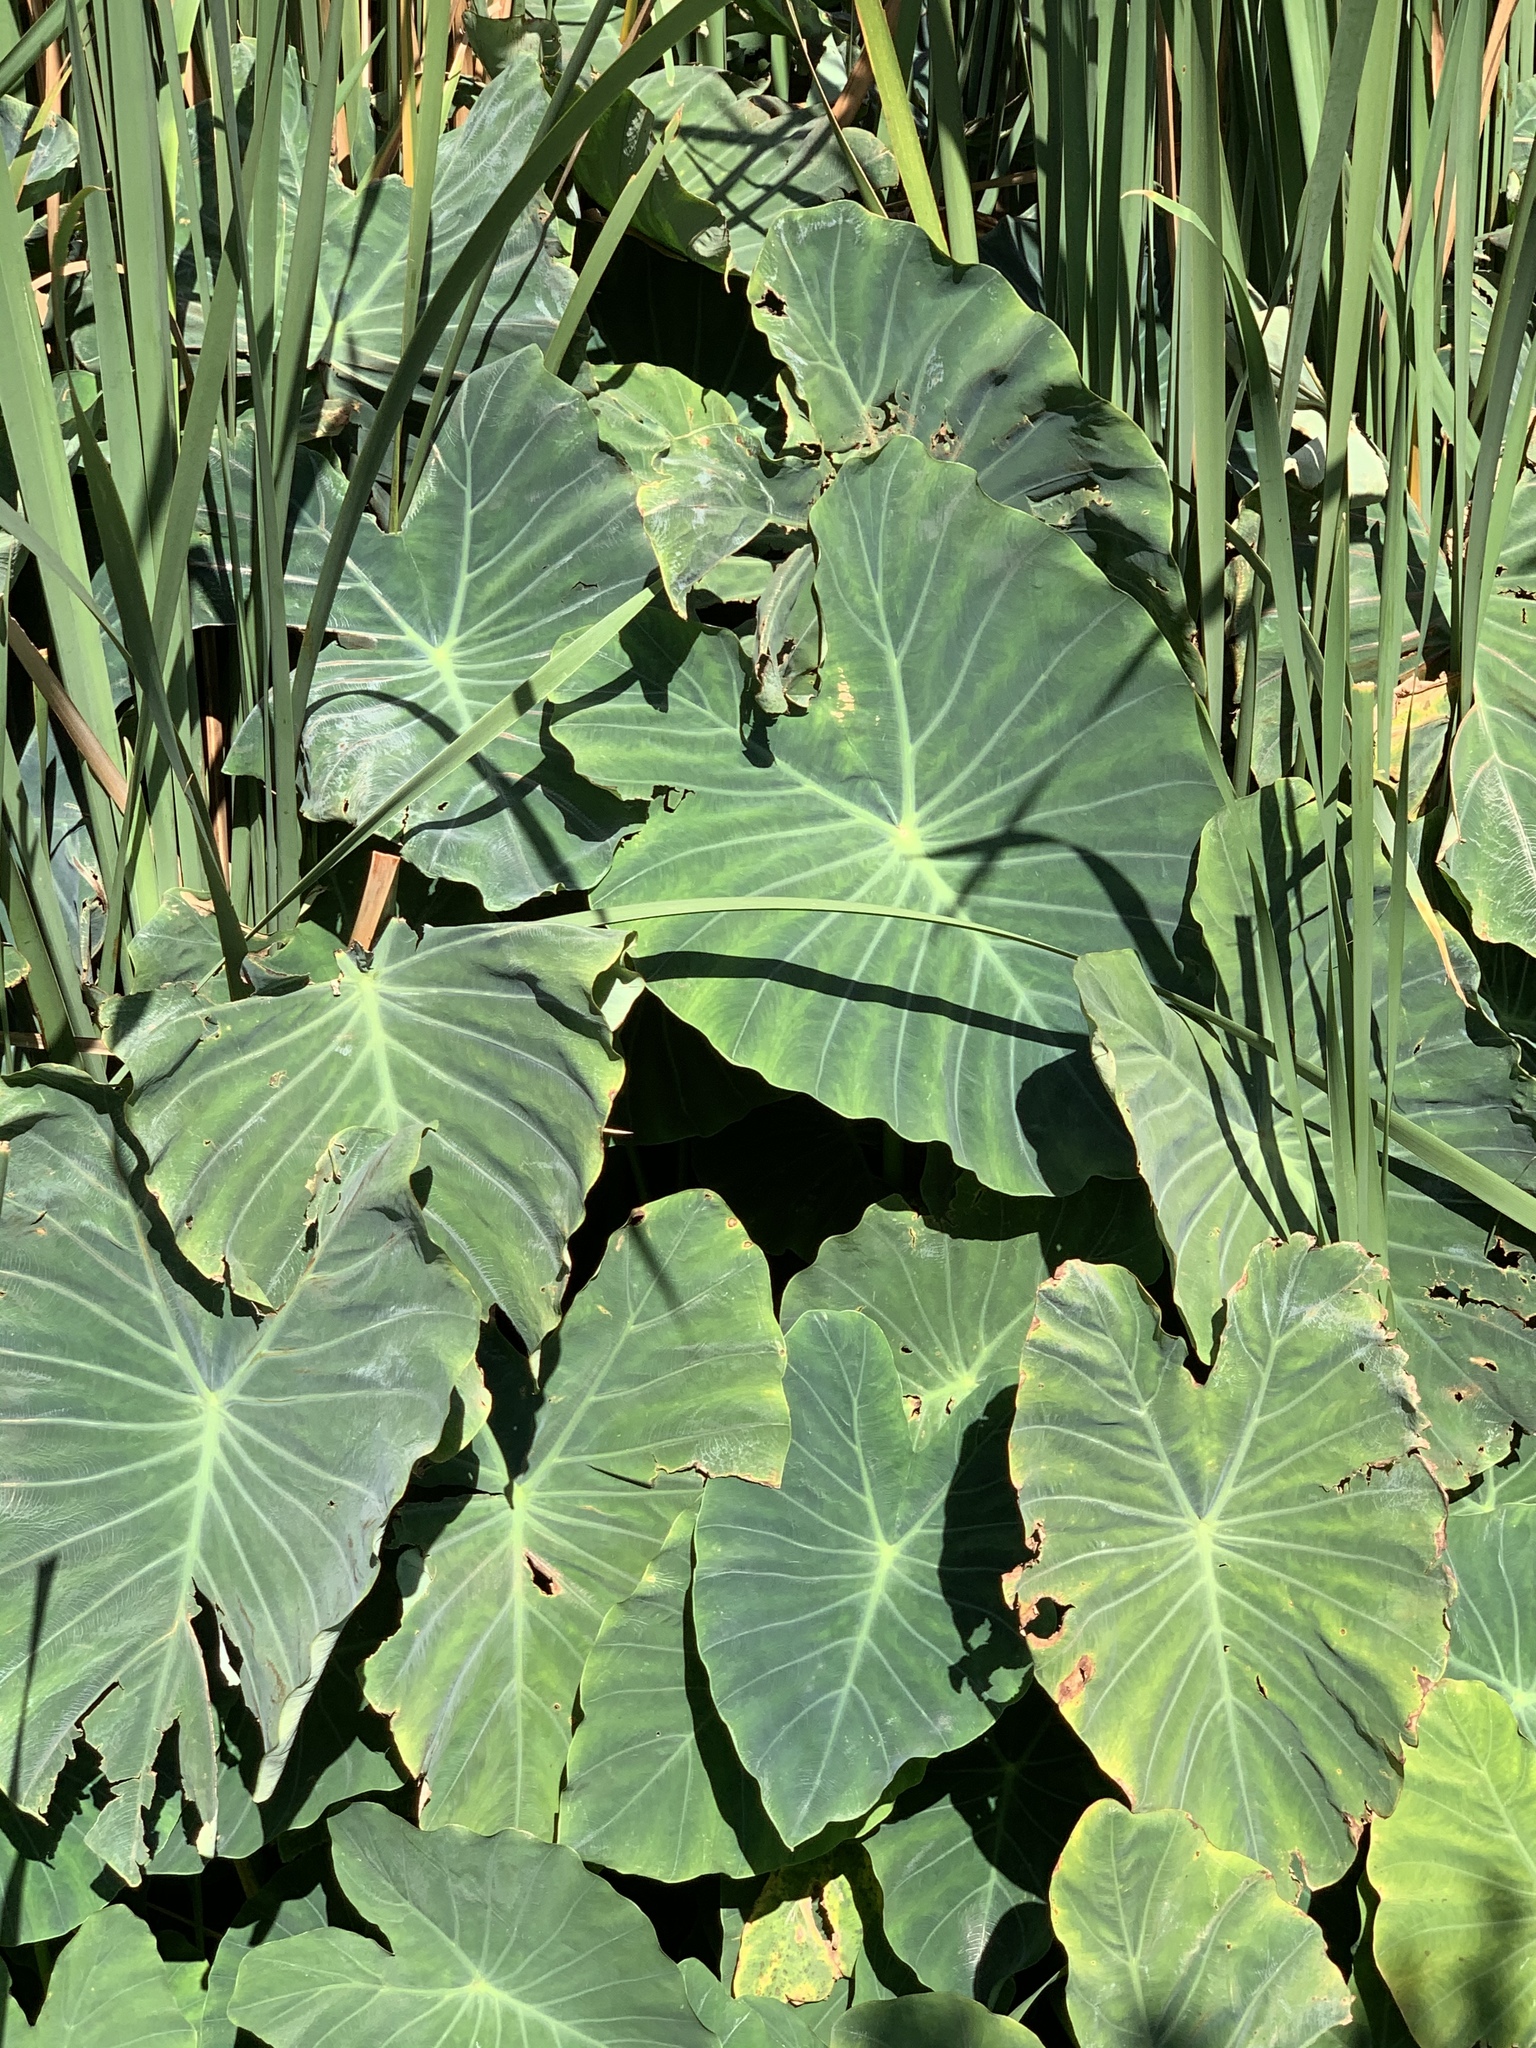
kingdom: Plantae
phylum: Tracheophyta
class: Liliopsida
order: Alismatales
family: Araceae
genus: Colocasia
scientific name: Colocasia esculenta
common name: Taro
